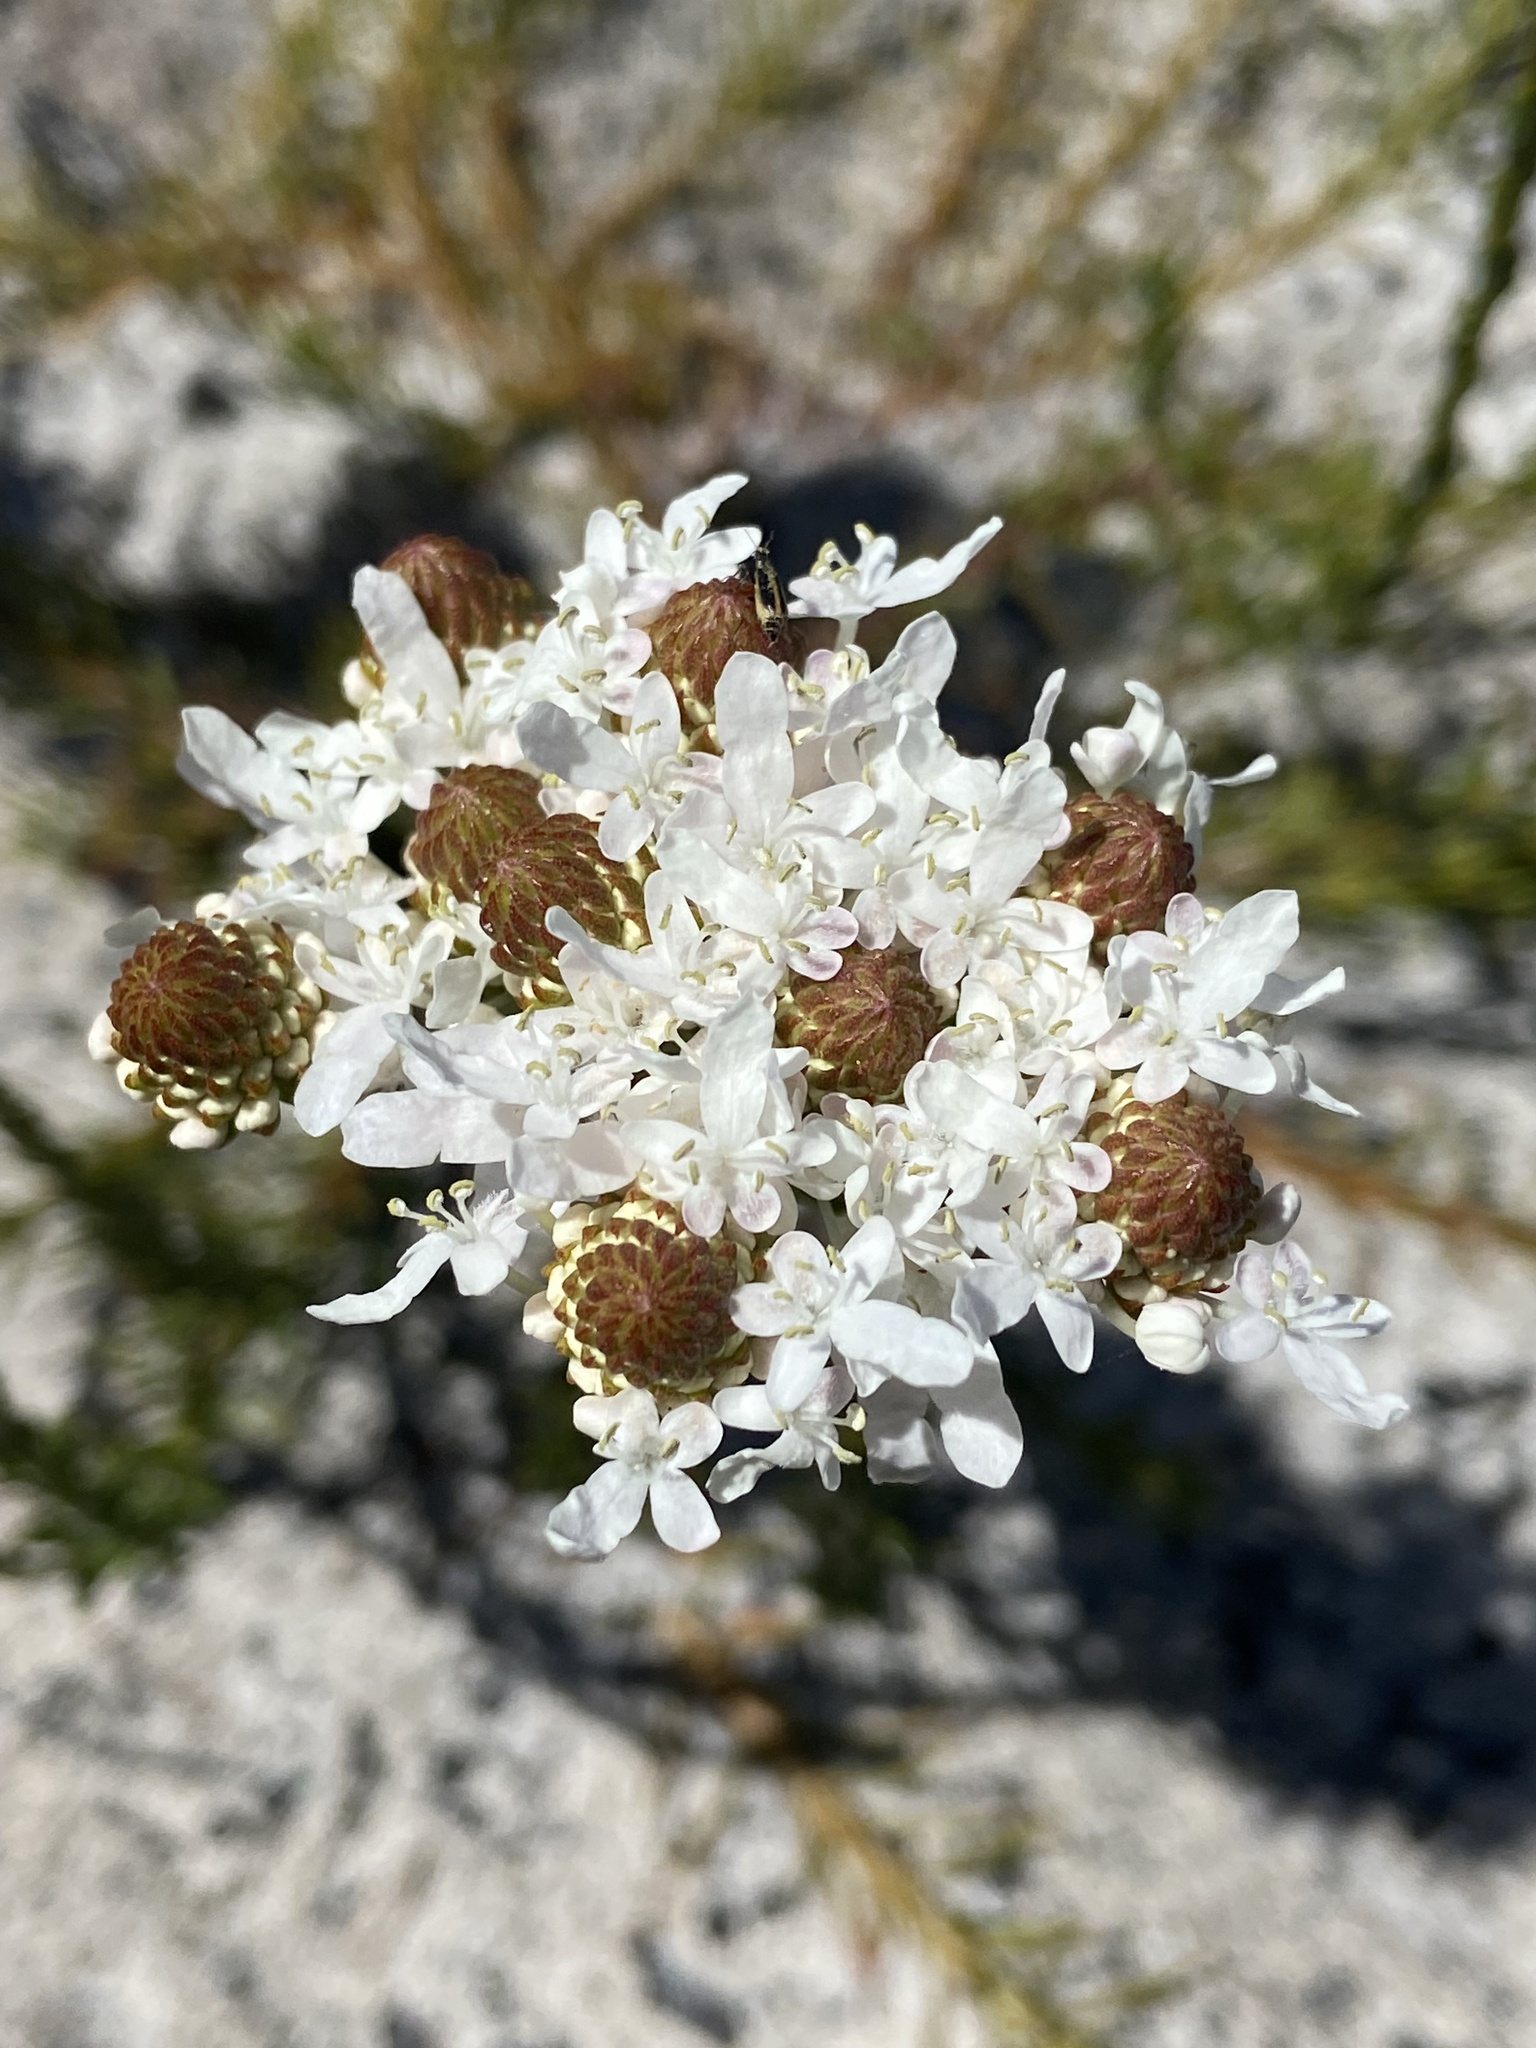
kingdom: Plantae
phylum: Tracheophyta
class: Magnoliopsida
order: Lamiales
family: Scrophulariaceae
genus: Pseudoselago
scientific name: Pseudoselago spuria
